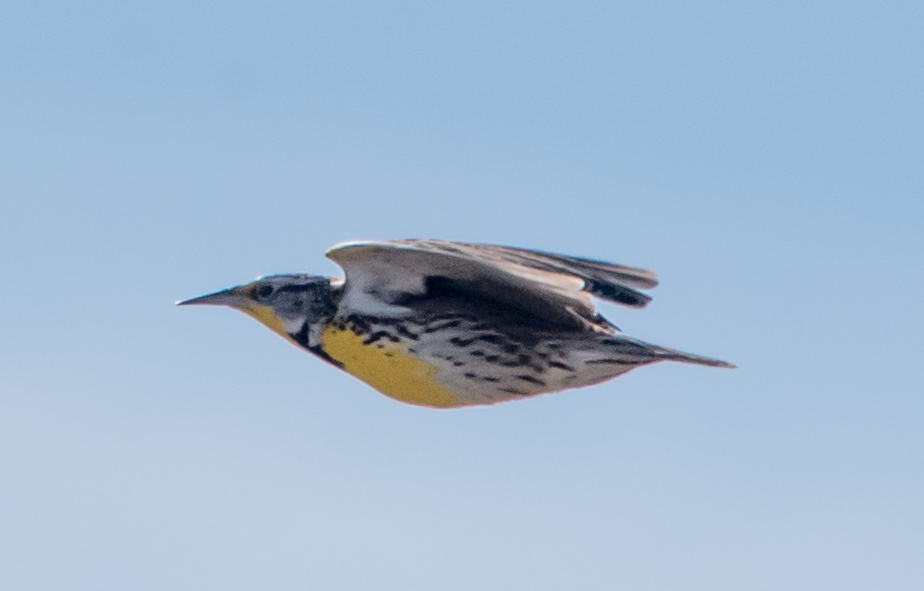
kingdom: Animalia
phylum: Chordata
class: Aves
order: Passeriformes
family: Icteridae
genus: Sturnella
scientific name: Sturnella neglecta
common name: Western meadowlark
